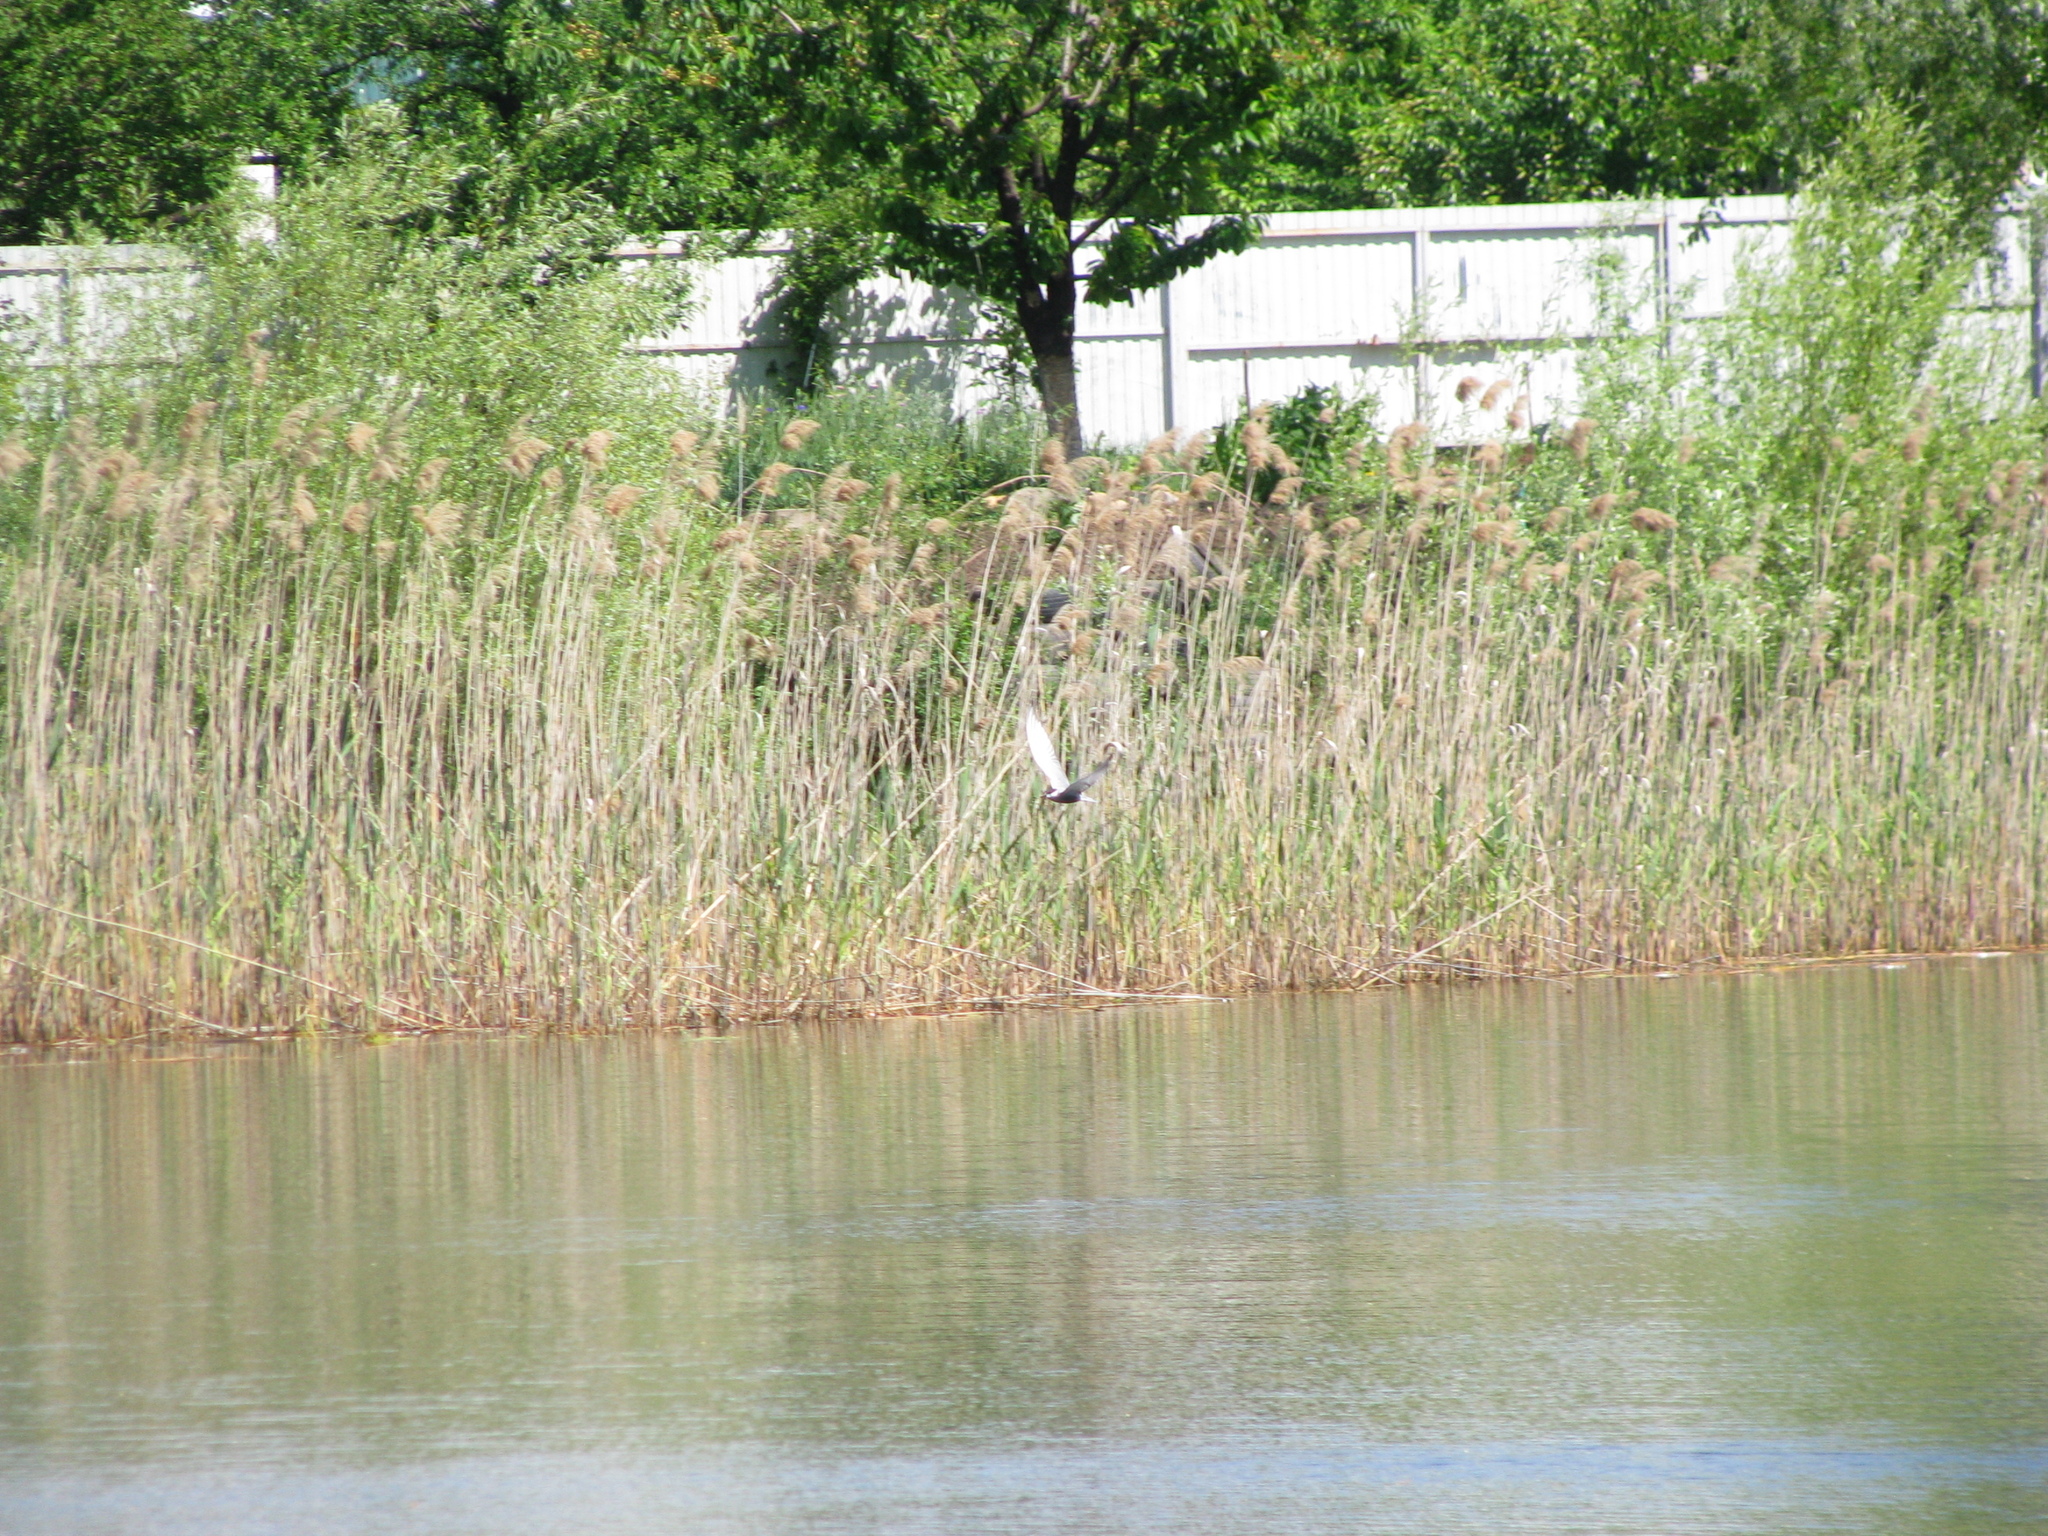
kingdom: Animalia
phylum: Chordata
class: Aves
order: Charadriiformes
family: Laridae
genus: Chlidonias
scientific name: Chlidonias hybrida
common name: Whiskered tern
